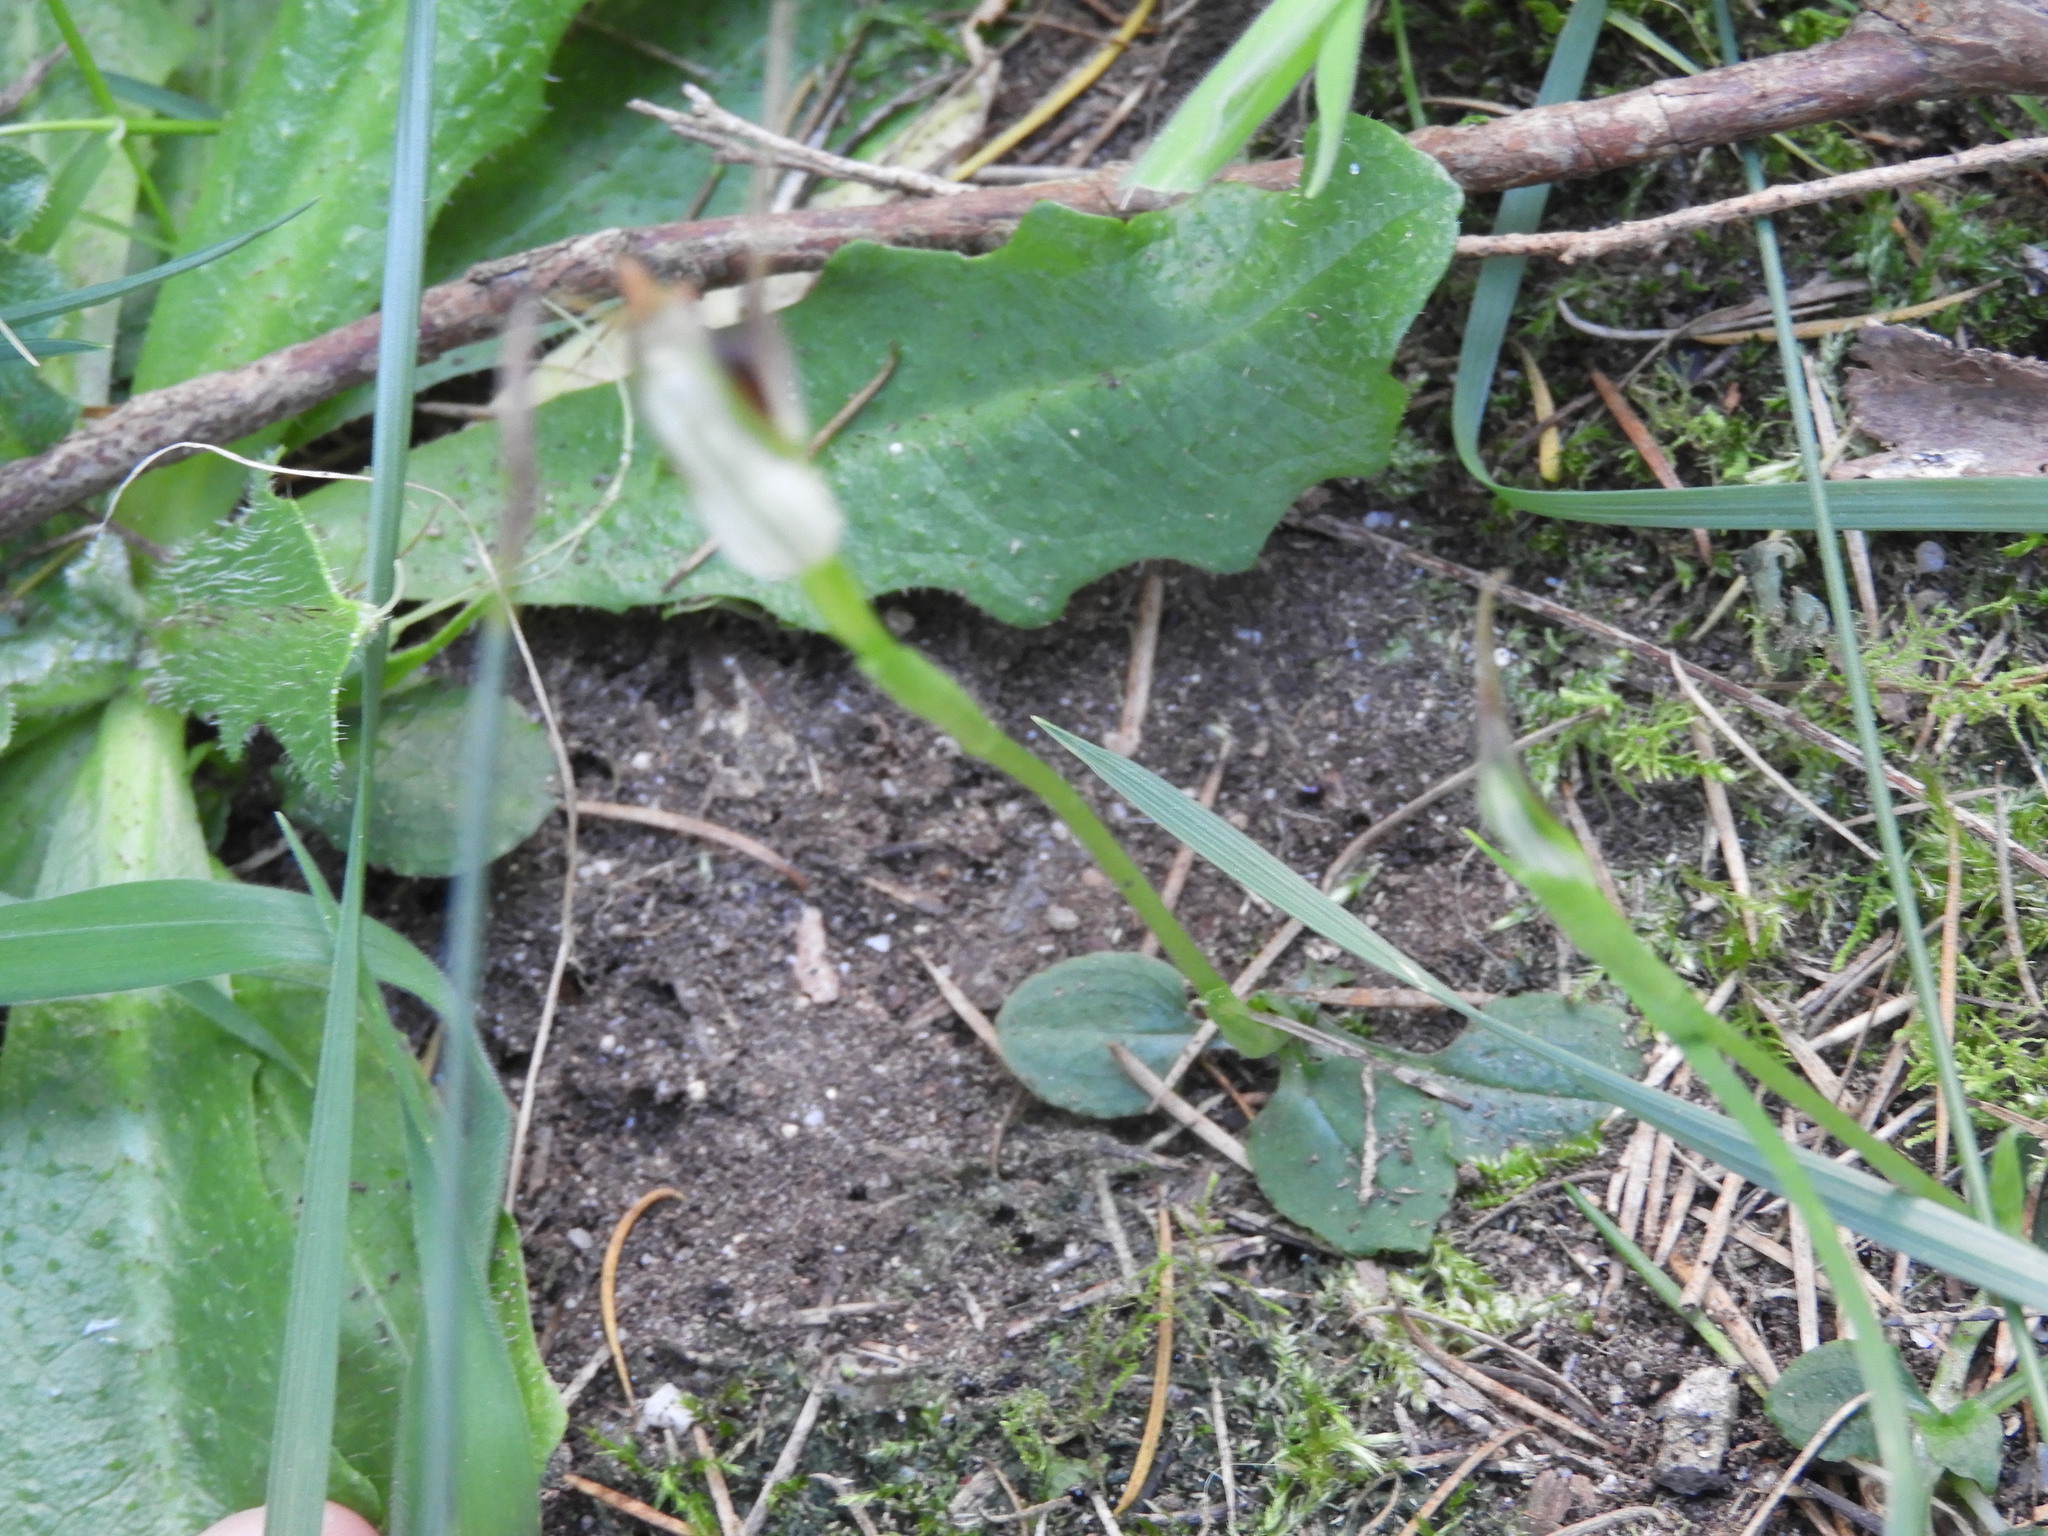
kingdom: Plantae
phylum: Tracheophyta
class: Liliopsida
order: Asparagales
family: Orchidaceae
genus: Pterostylis
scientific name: Pterostylis oblonga
